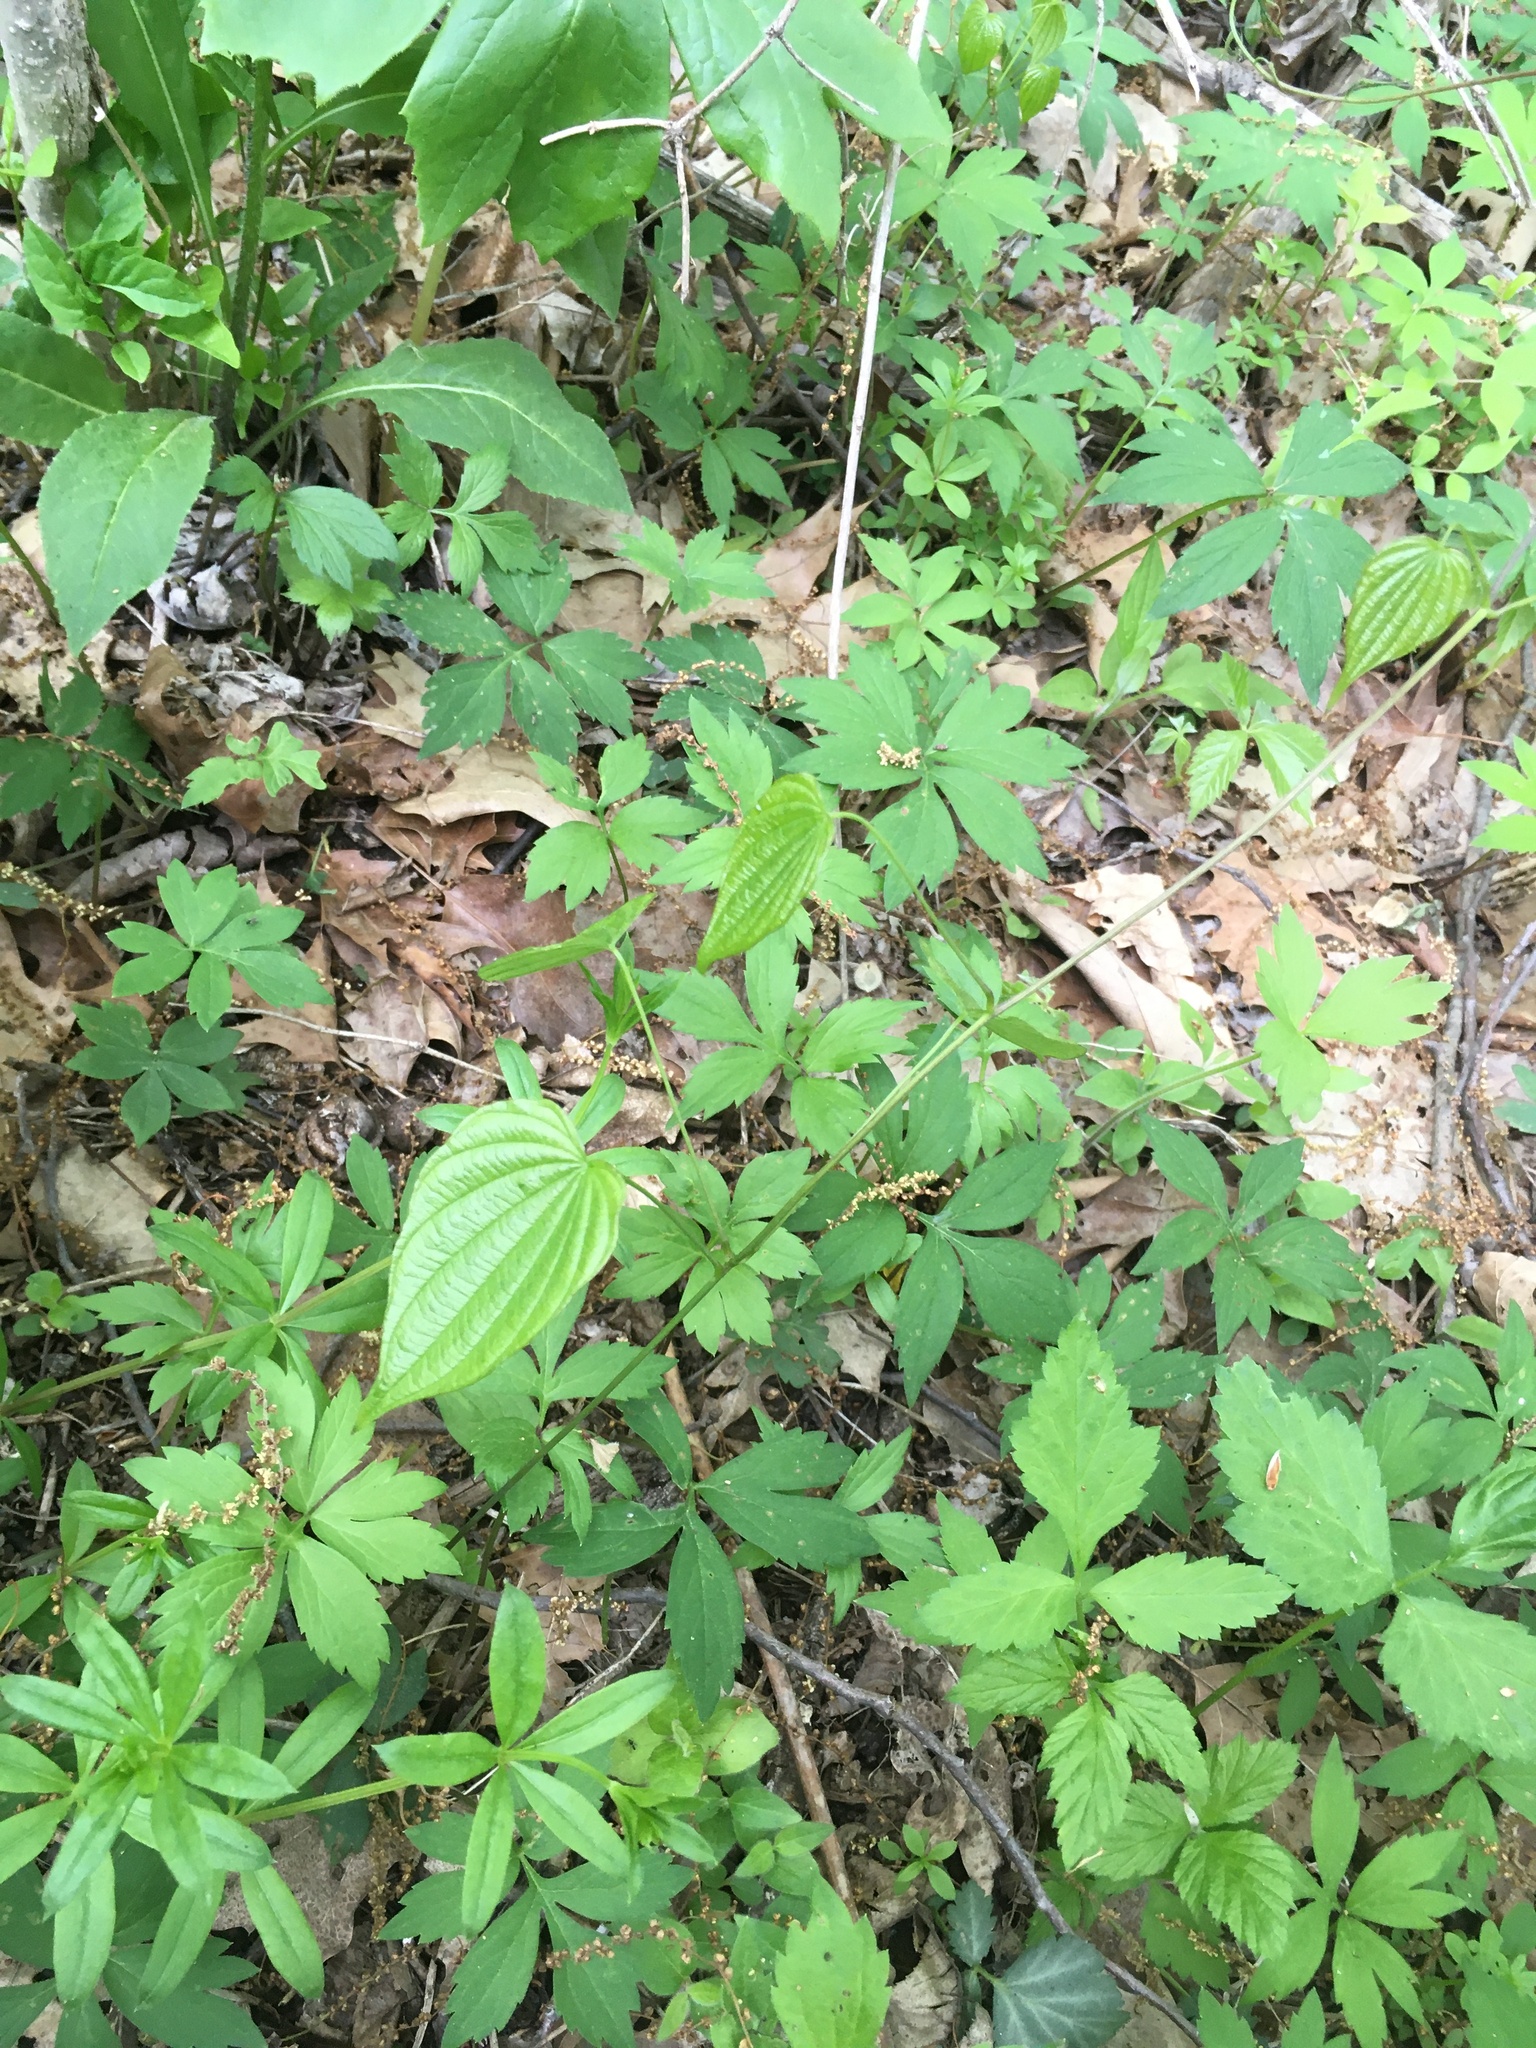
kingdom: Plantae
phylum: Tracheophyta
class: Liliopsida
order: Dioscoreales
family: Dioscoreaceae
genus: Dioscorea
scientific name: Dioscorea villosa
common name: Wild yam
